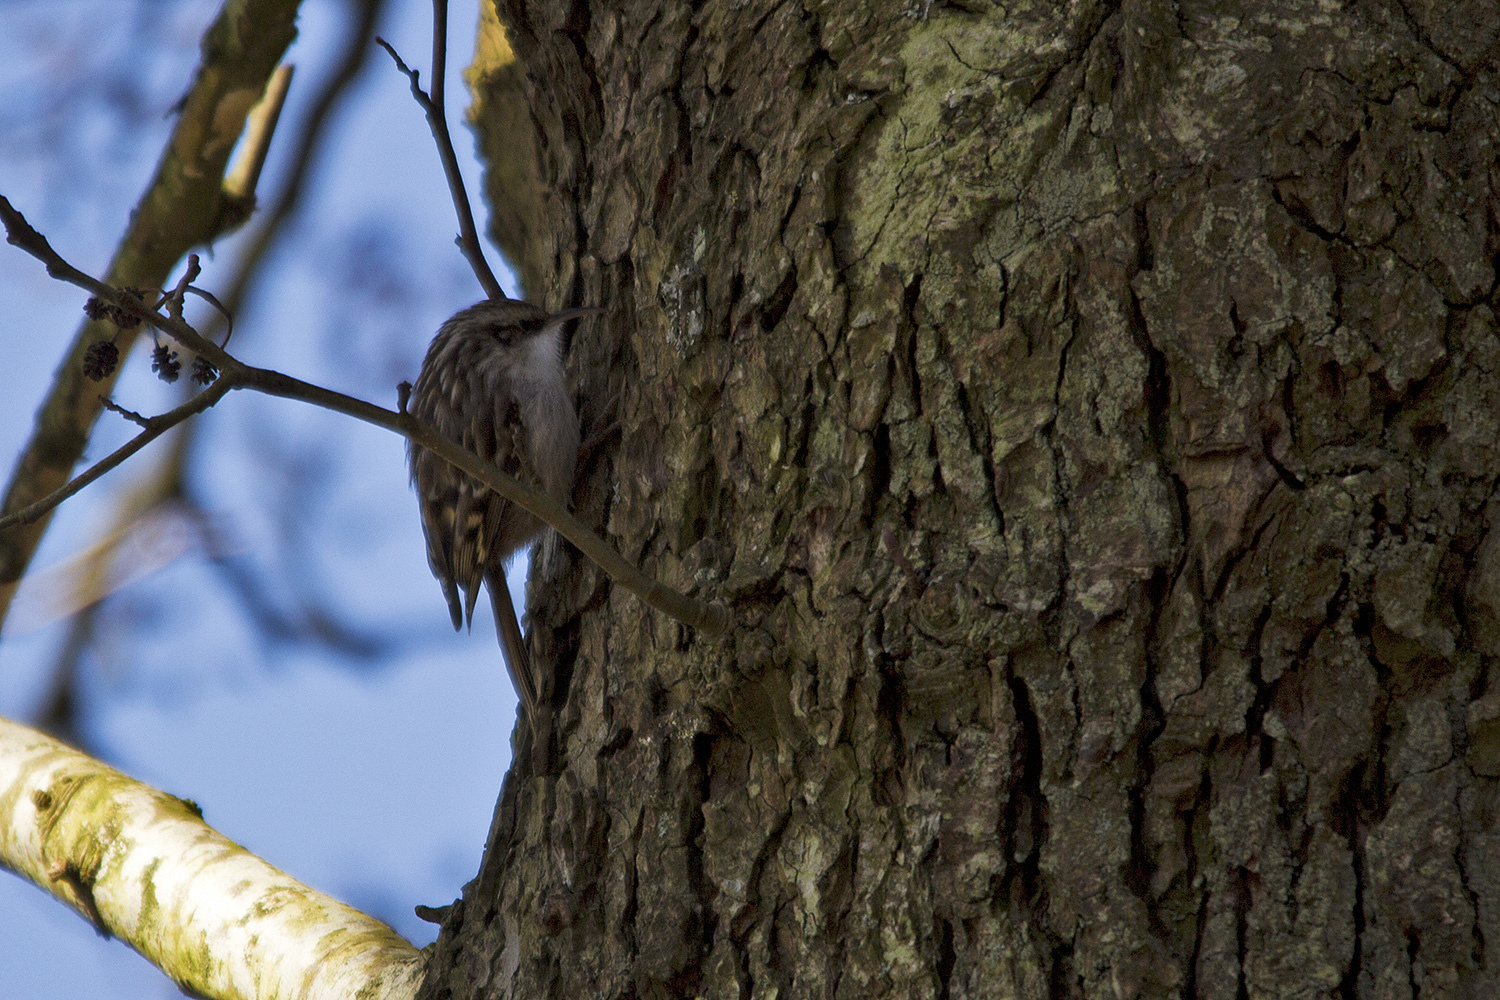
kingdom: Animalia
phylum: Chordata
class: Aves
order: Passeriformes
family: Certhiidae
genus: Certhia
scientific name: Certhia brachydactyla
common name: Short-toed treecreeper
